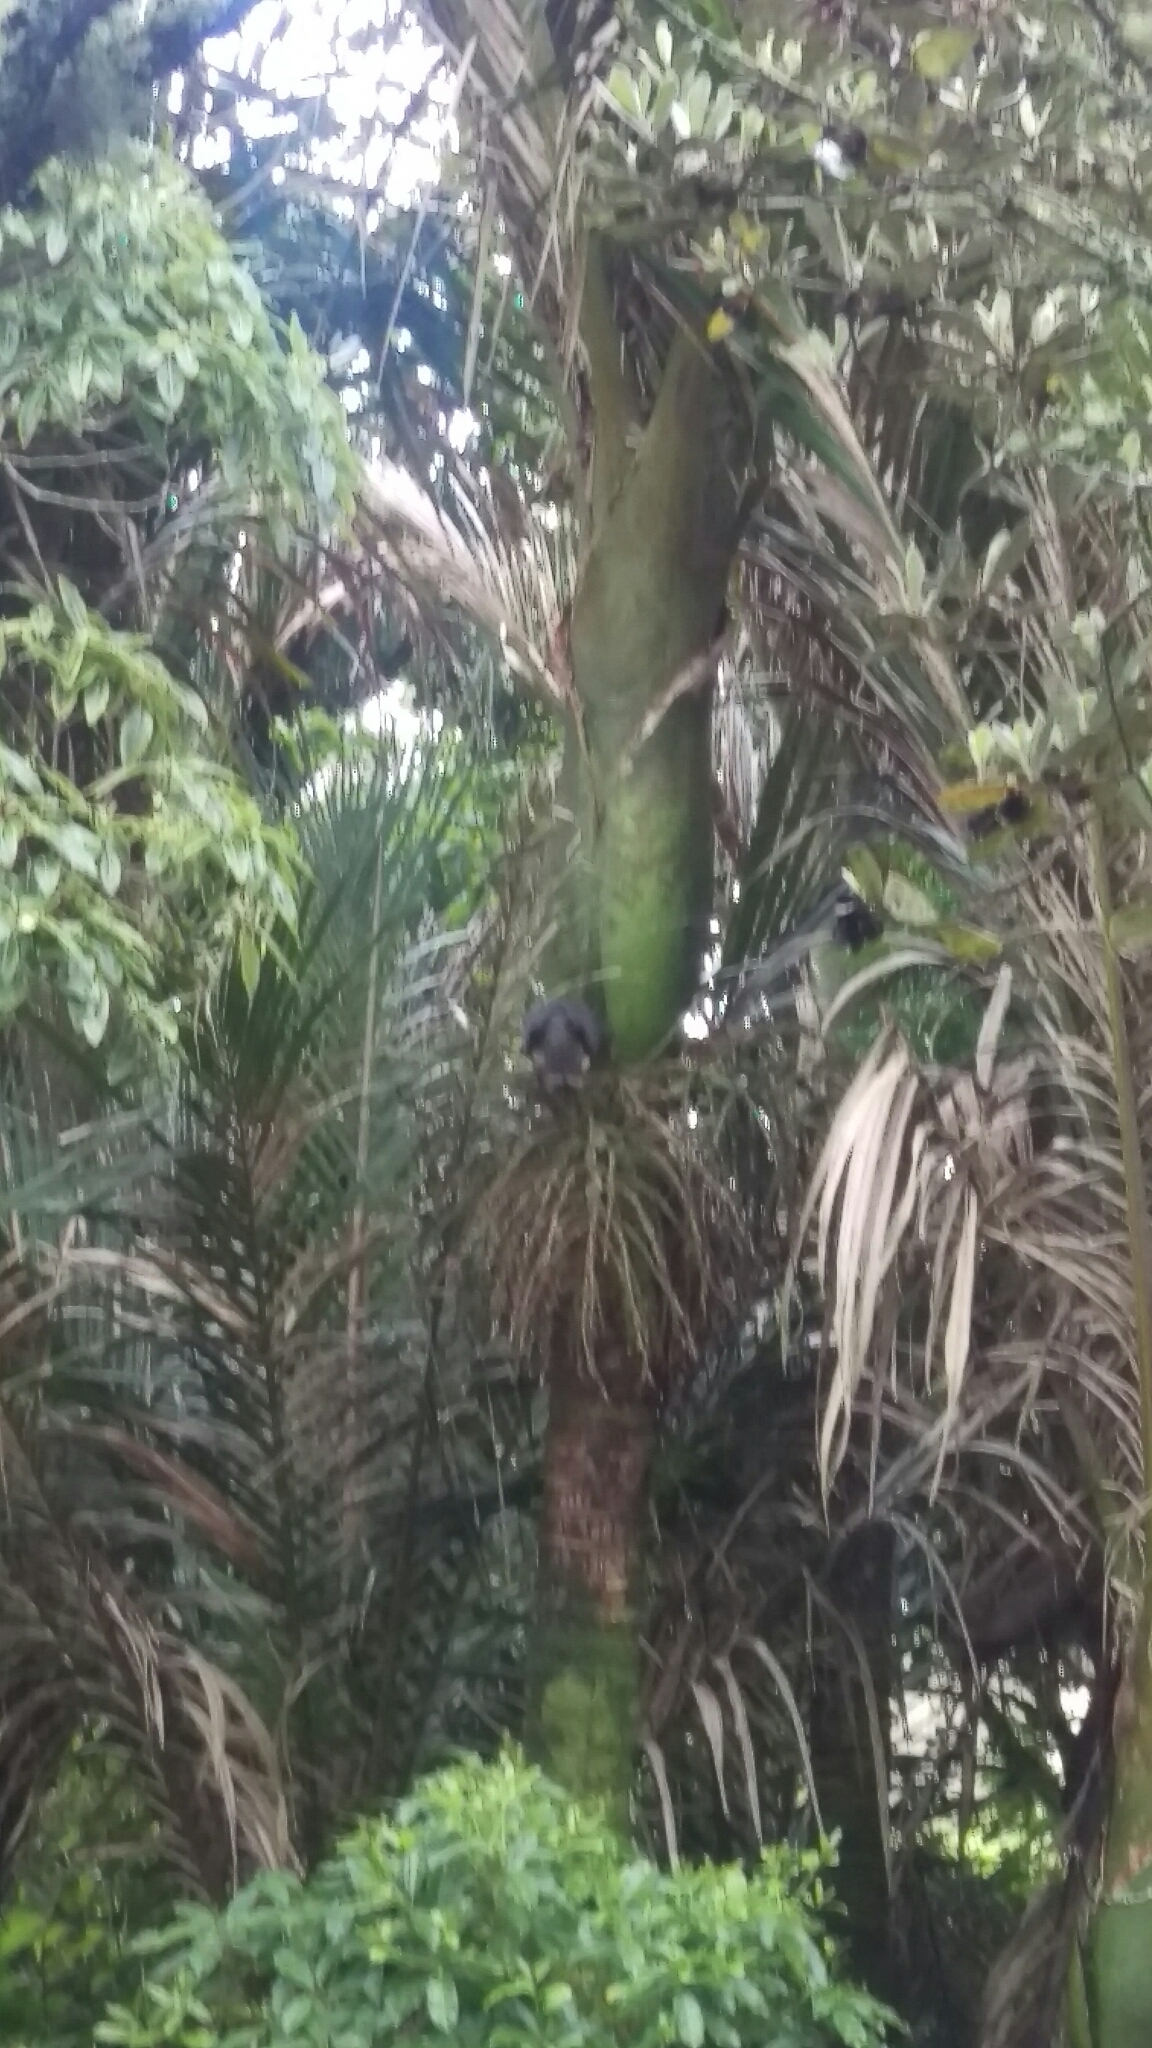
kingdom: Animalia
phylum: Chordata
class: Aves
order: Columbiformes
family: Columbidae
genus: Hemiphaga
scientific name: Hemiphaga novaeseelandiae
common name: New zealand pigeon
